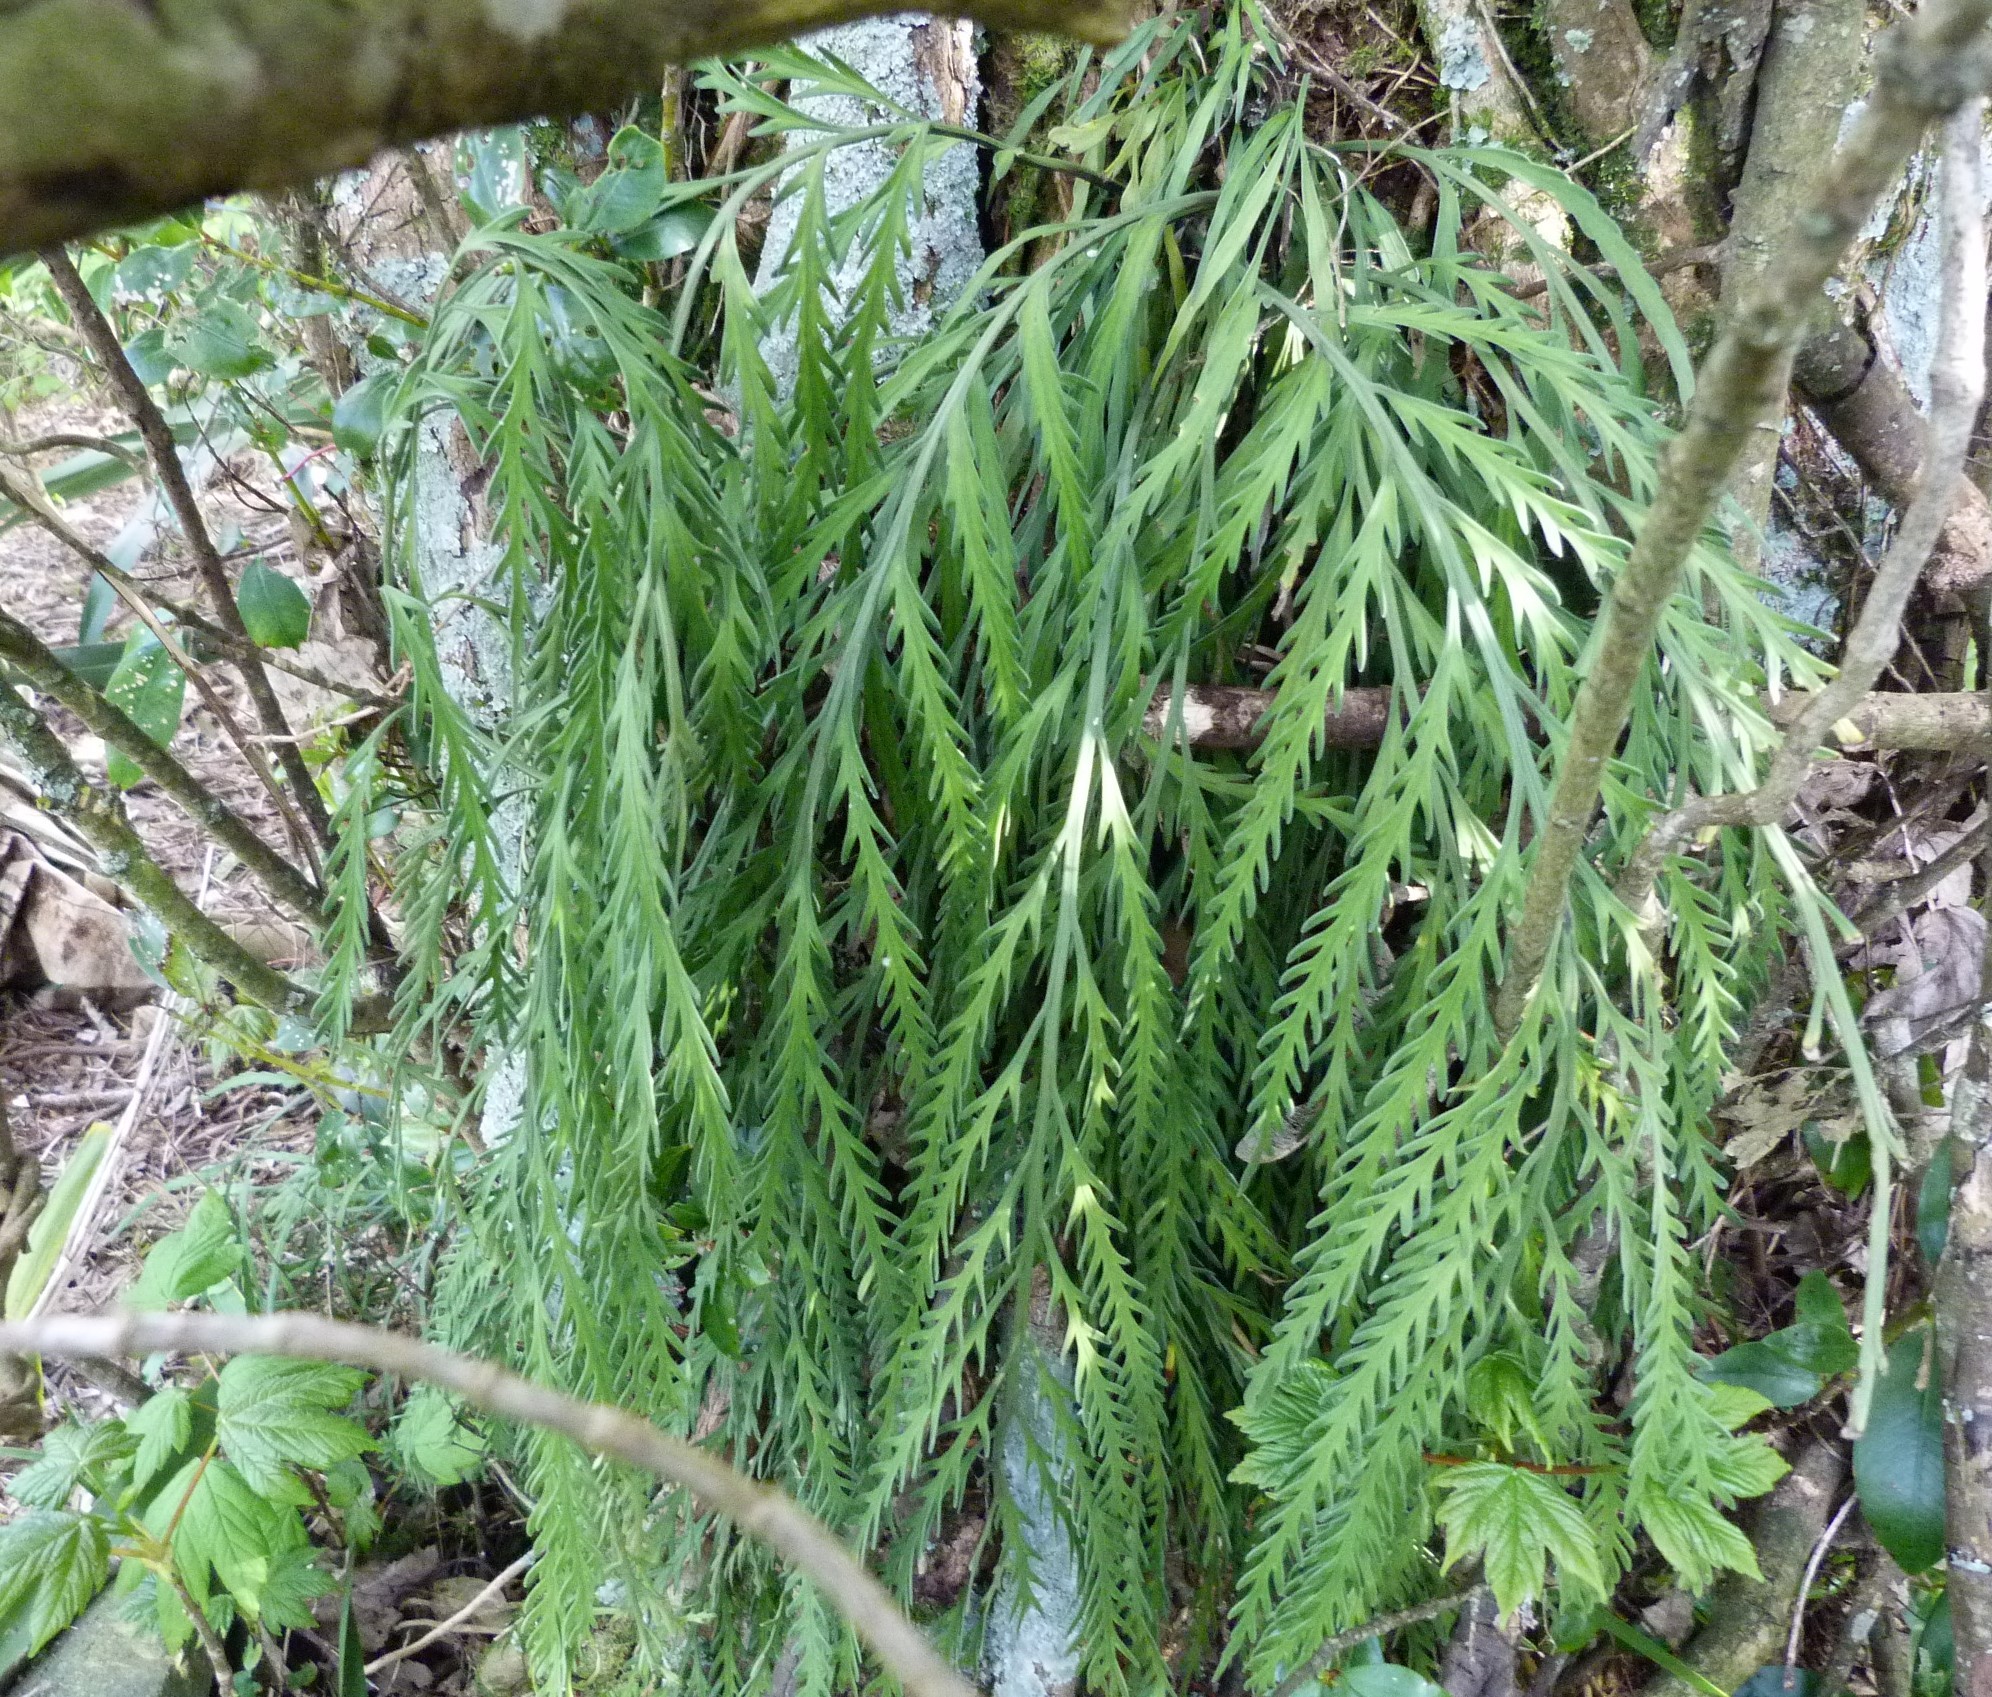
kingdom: Plantae
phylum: Tracheophyta
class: Polypodiopsida
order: Polypodiales
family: Aspleniaceae
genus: Asplenium
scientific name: Asplenium flaccidum
